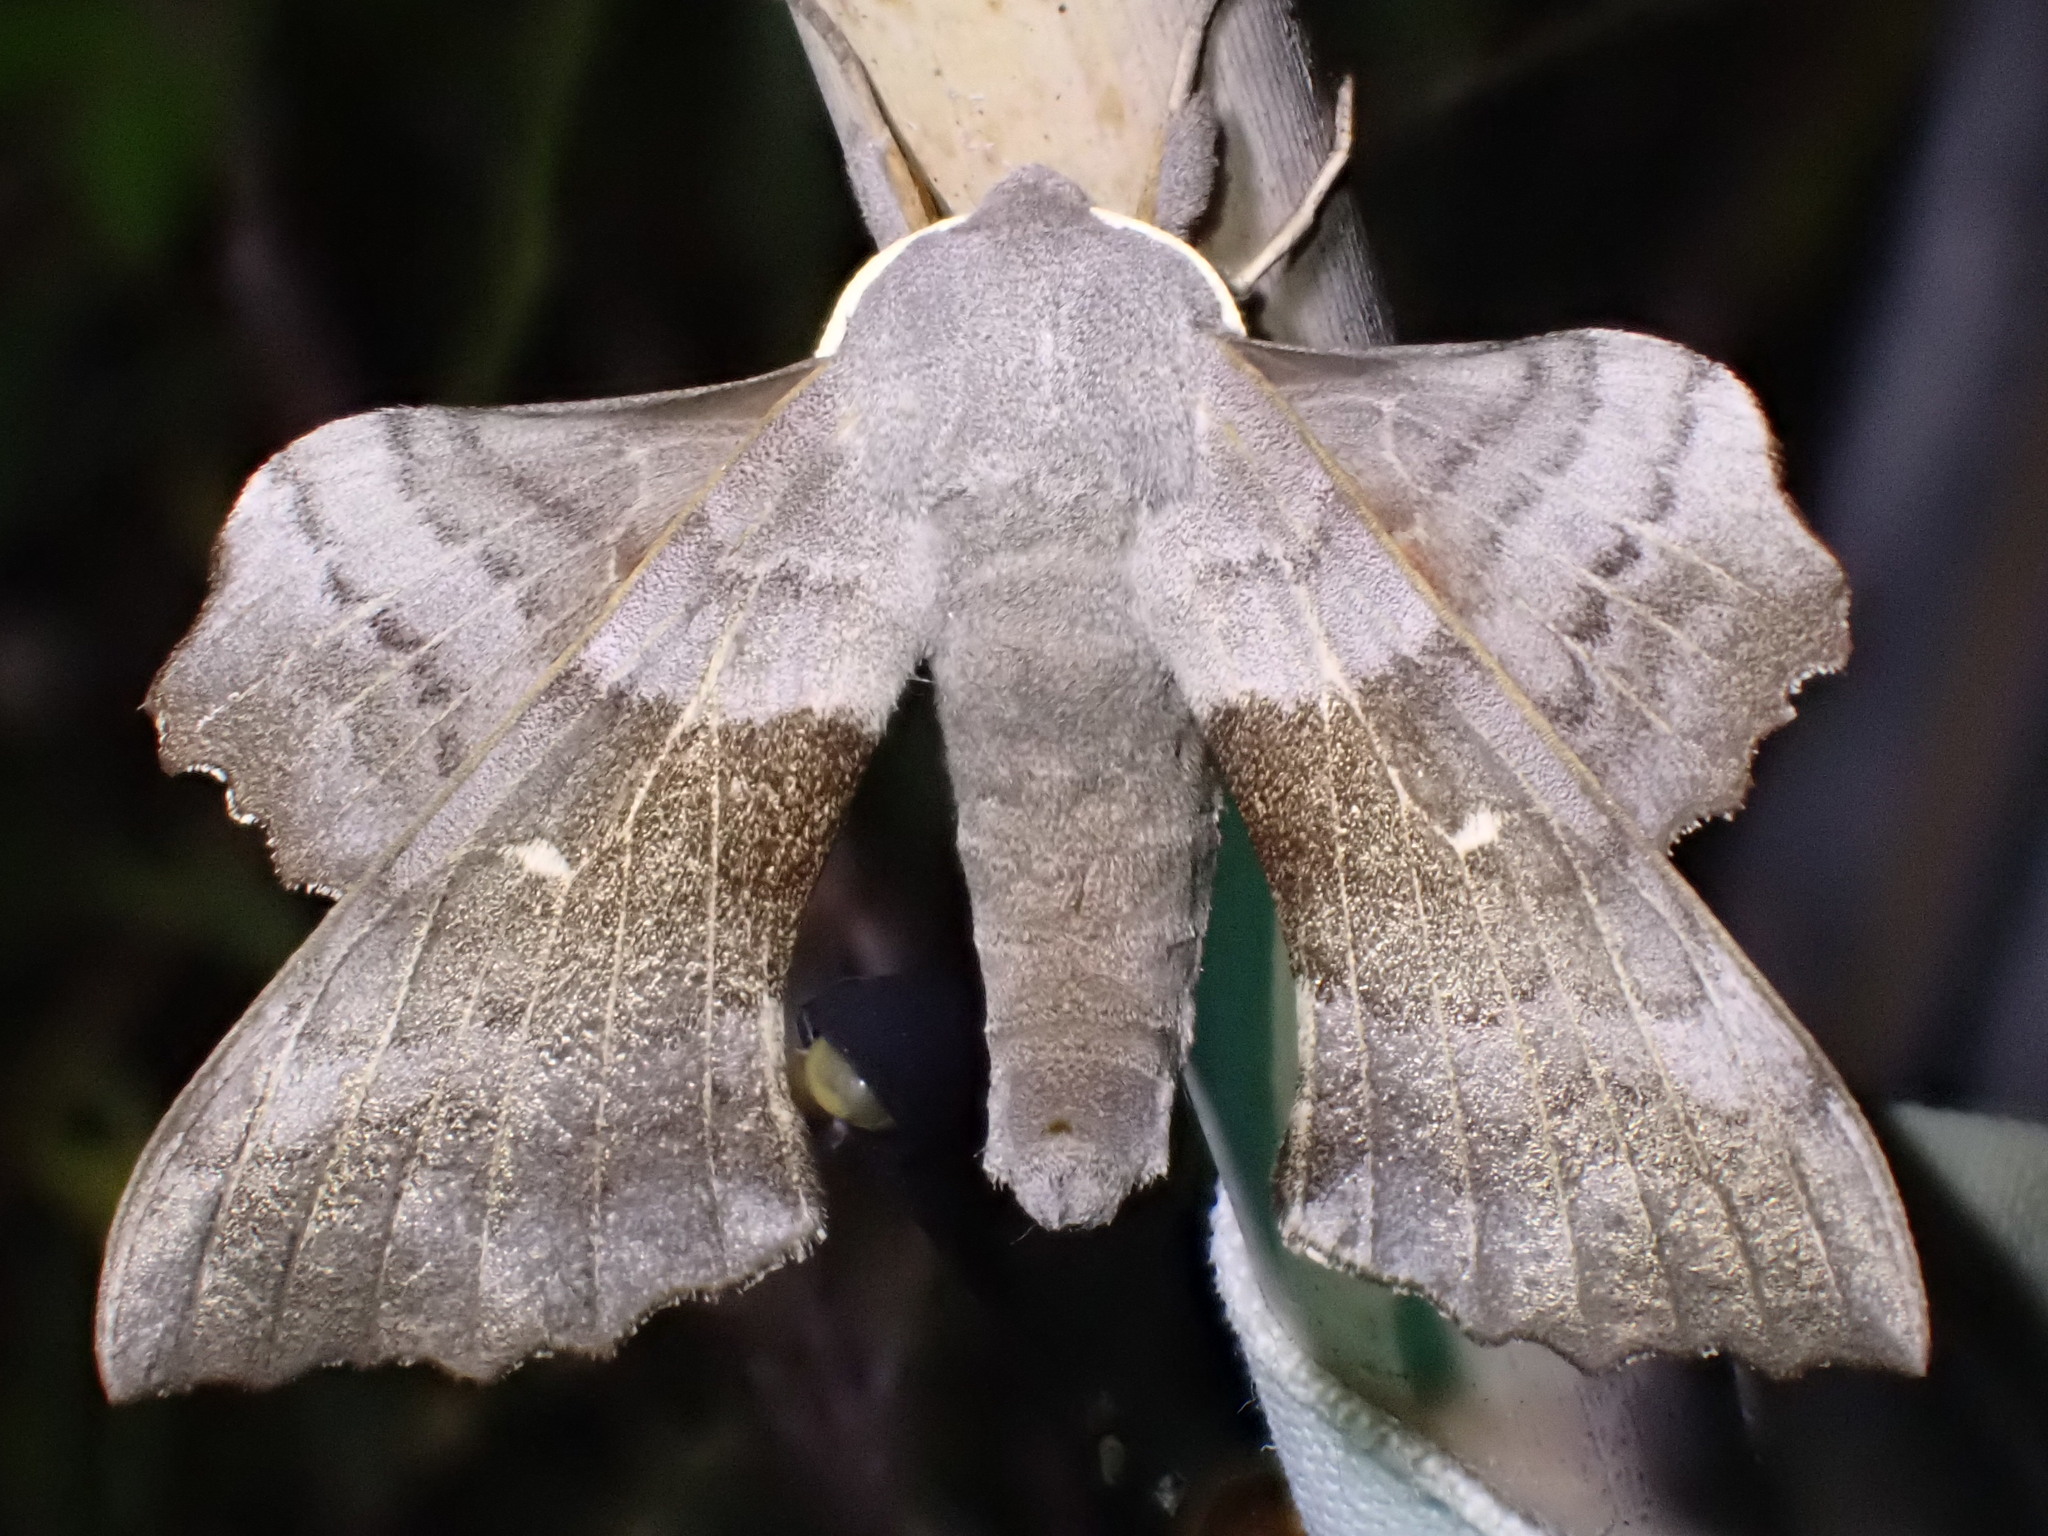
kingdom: Animalia
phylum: Arthropoda
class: Insecta
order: Lepidoptera
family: Sphingidae
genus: Laothoe
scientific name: Laothoe populi
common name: Poplar hawk-moth
